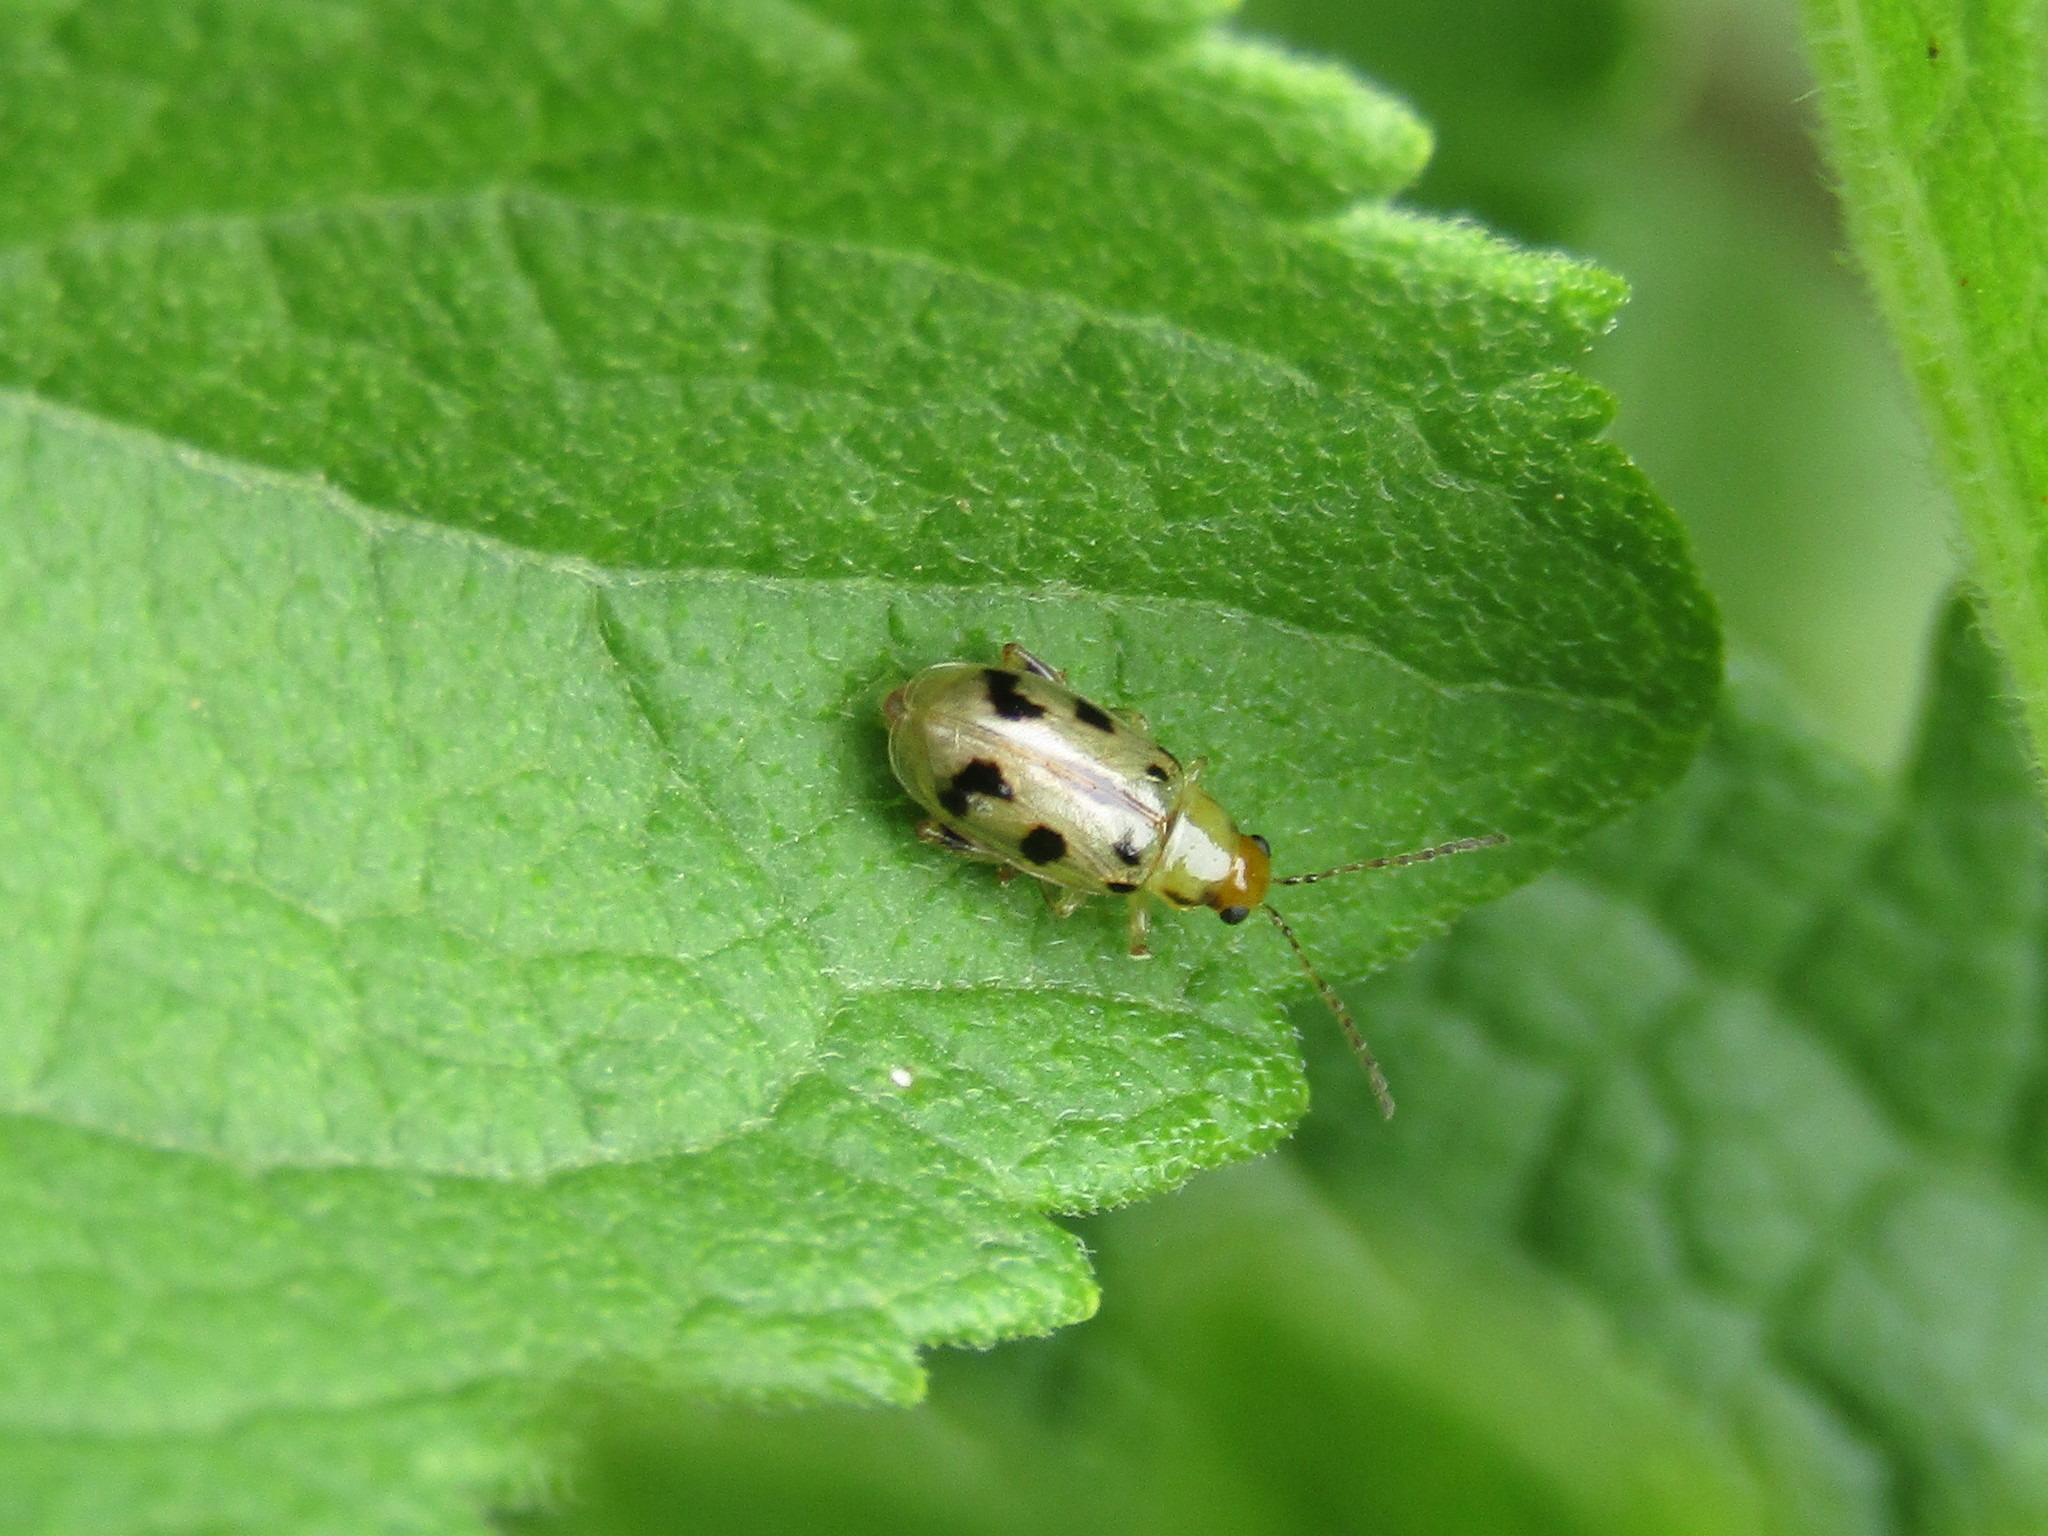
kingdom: Animalia
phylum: Arthropoda
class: Insecta
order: Coleoptera
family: Chrysomelidae
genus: Systena
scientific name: Systena
